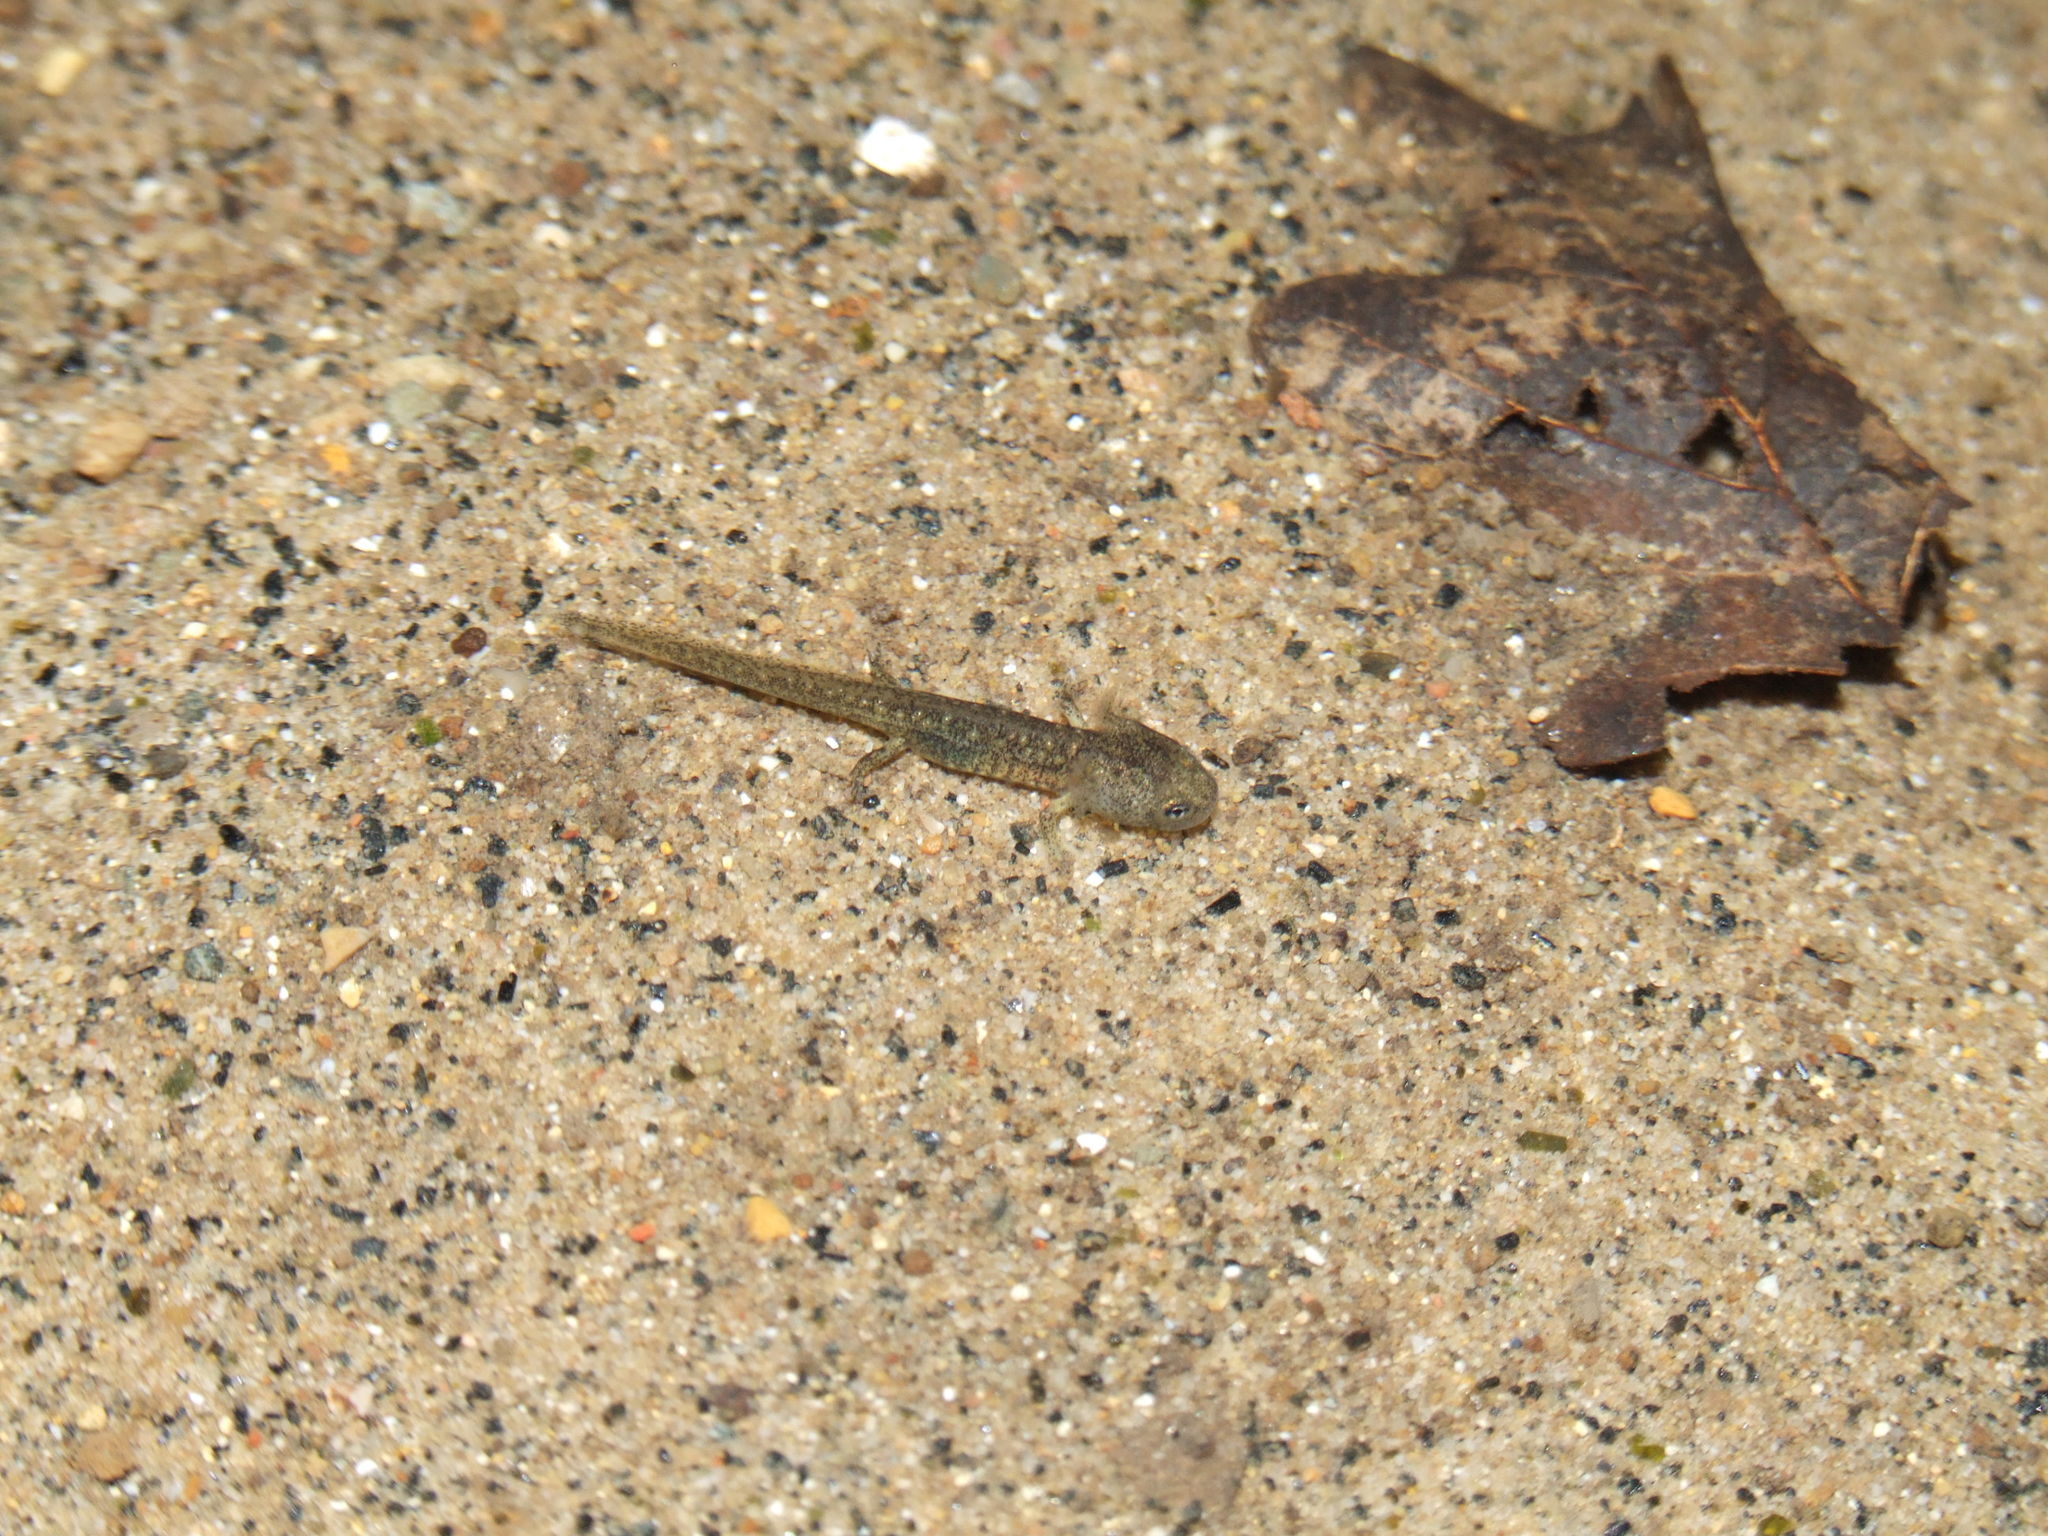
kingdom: Animalia
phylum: Chordata
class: Amphibia
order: Caudata
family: Salamandridae
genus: Salamandrina
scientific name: Salamandrina perspicillata
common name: Northern spectacled salamander
